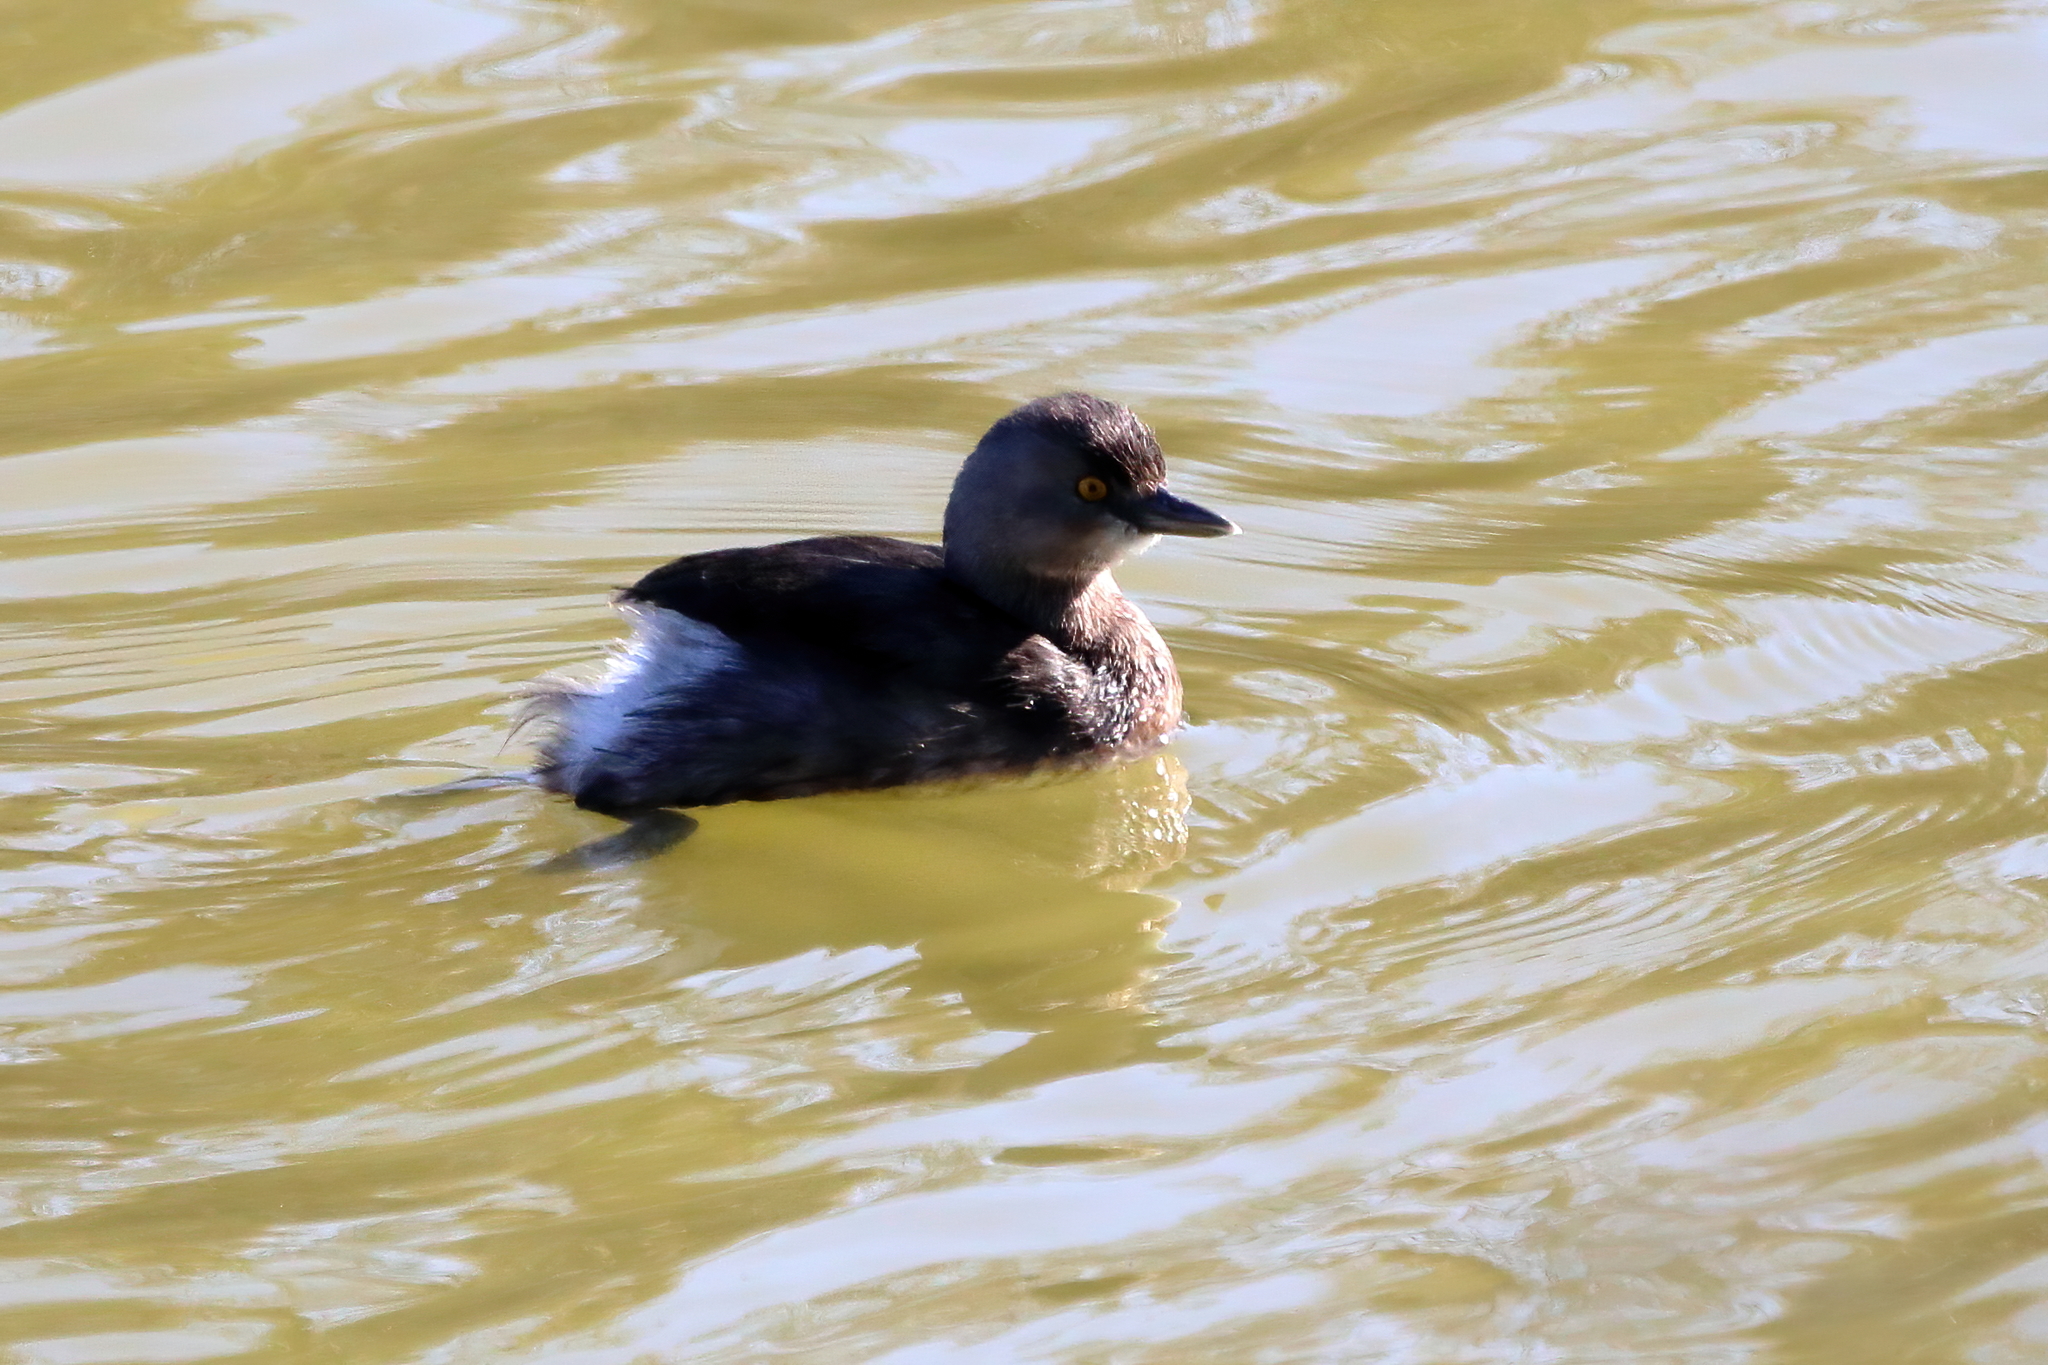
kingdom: Animalia
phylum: Chordata
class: Aves
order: Podicipediformes
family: Podicipedidae
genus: Tachybaptus
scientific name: Tachybaptus dominicus
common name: Least grebe
